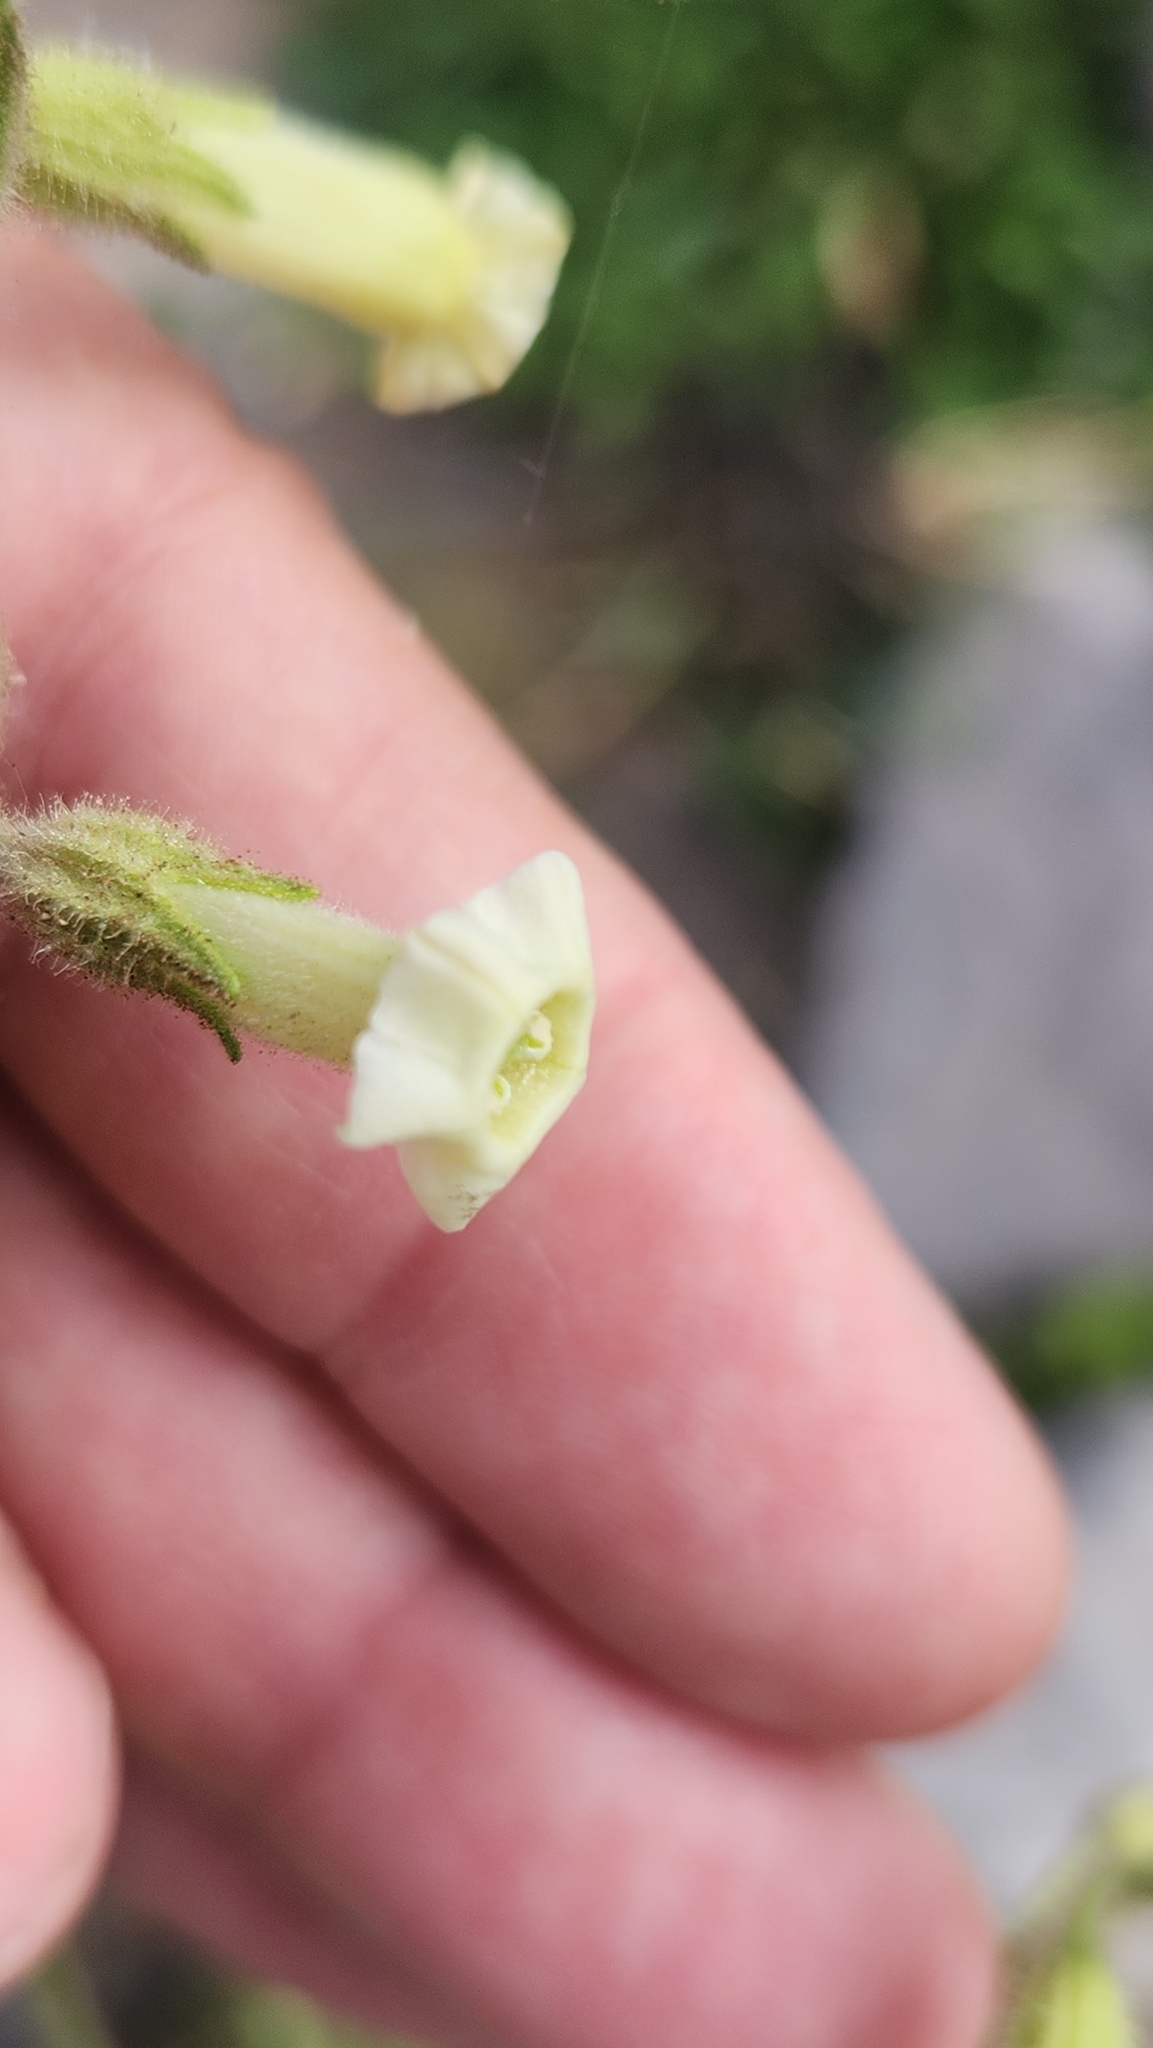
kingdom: Plantae
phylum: Tracheophyta
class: Magnoliopsida
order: Solanales
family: Solanaceae
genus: Nicotiana
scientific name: Nicotiana obtusifolia
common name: Desert tobacco
